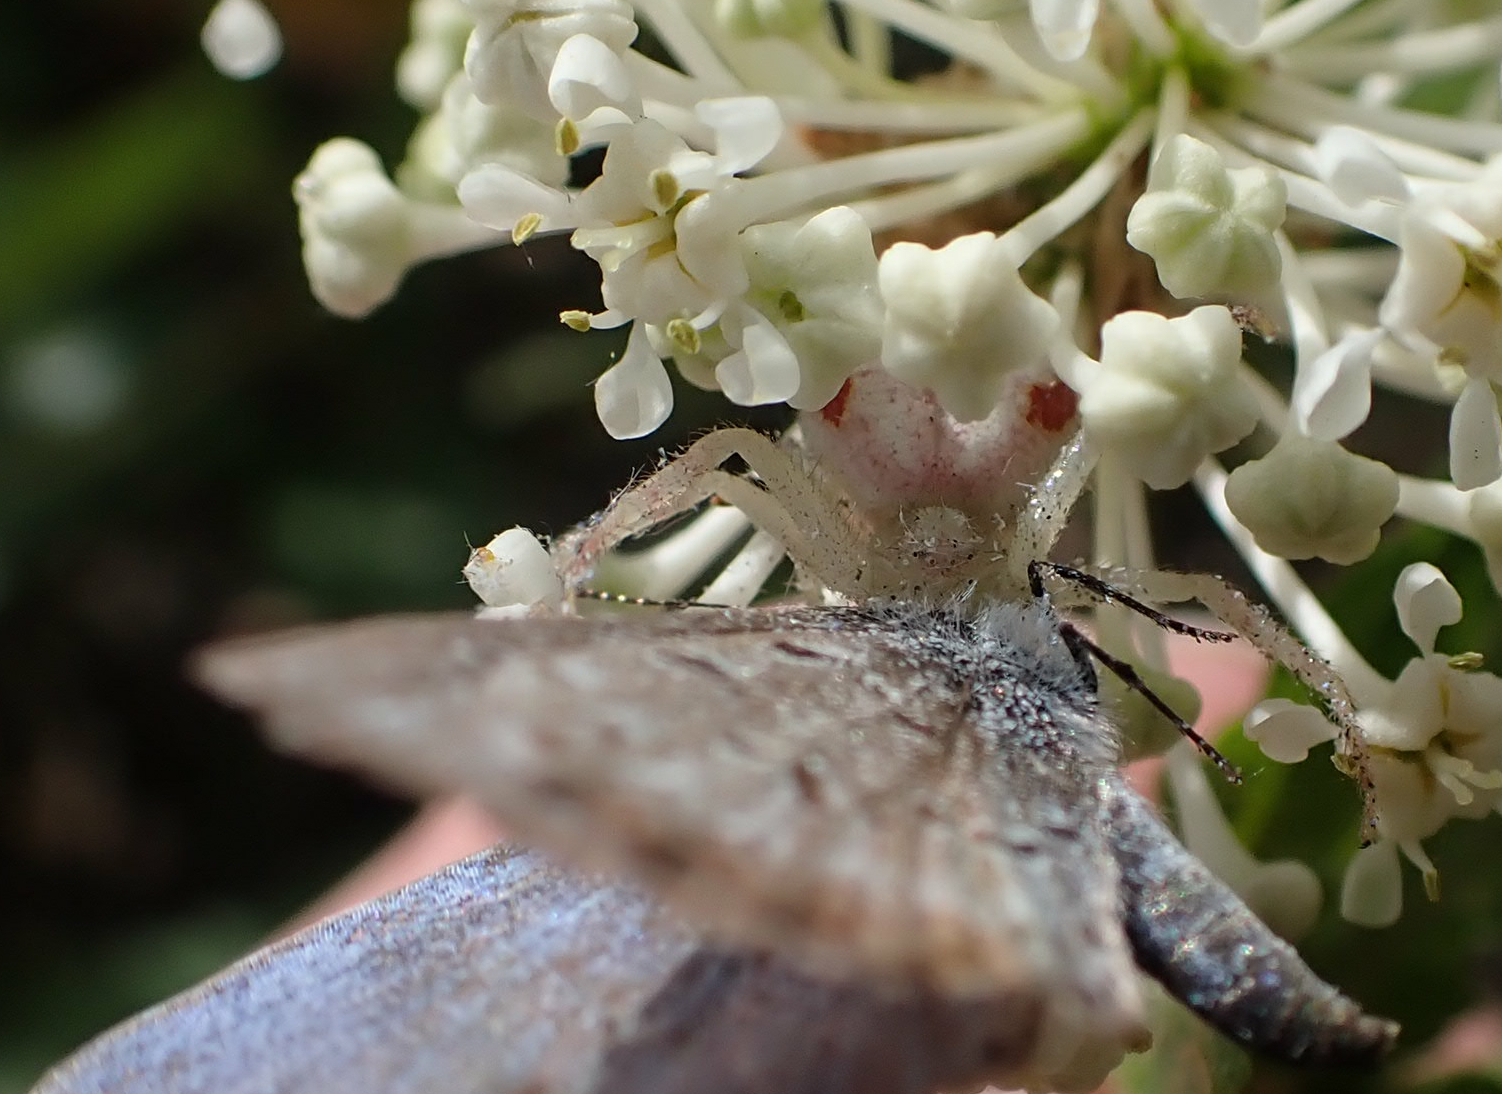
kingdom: Animalia
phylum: Arthropoda
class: Arachnida
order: Araneae
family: Thomisidae
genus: Misumena
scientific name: Misumena vatia
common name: Goldenrod crab spider
